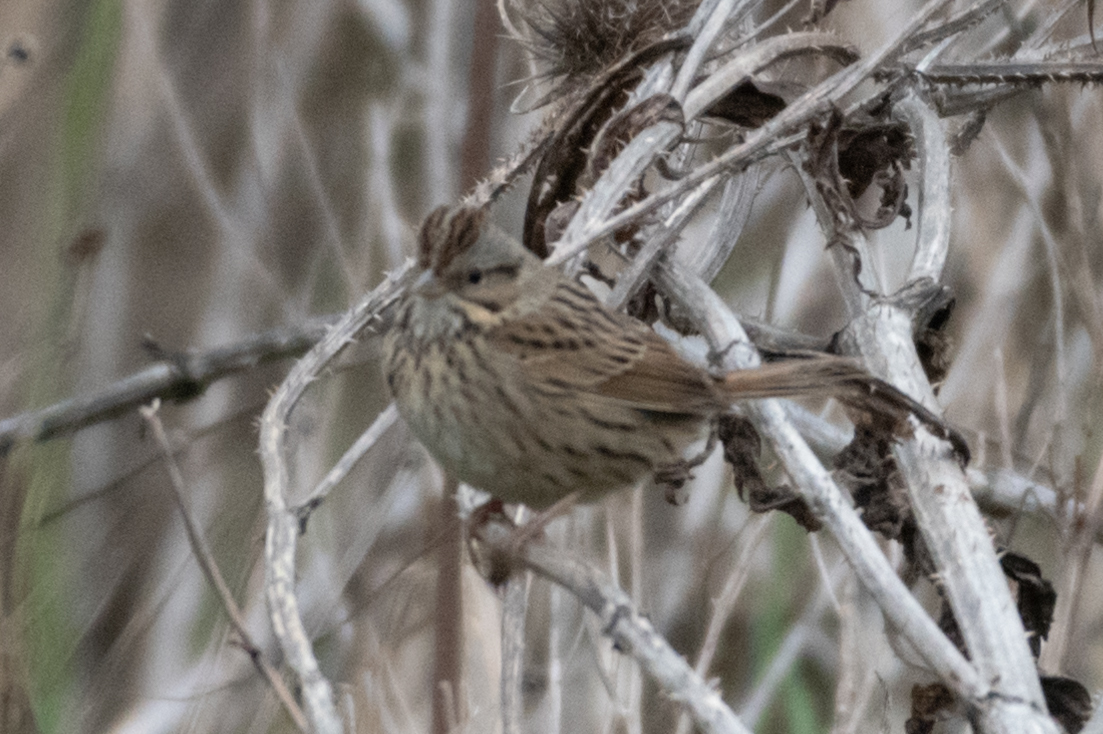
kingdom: Animalia
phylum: Chordata
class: Aves
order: Passeriformes
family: Passerellidae
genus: Melospiza
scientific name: Melospiza lincolnii
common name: Lincoln's sparrow
